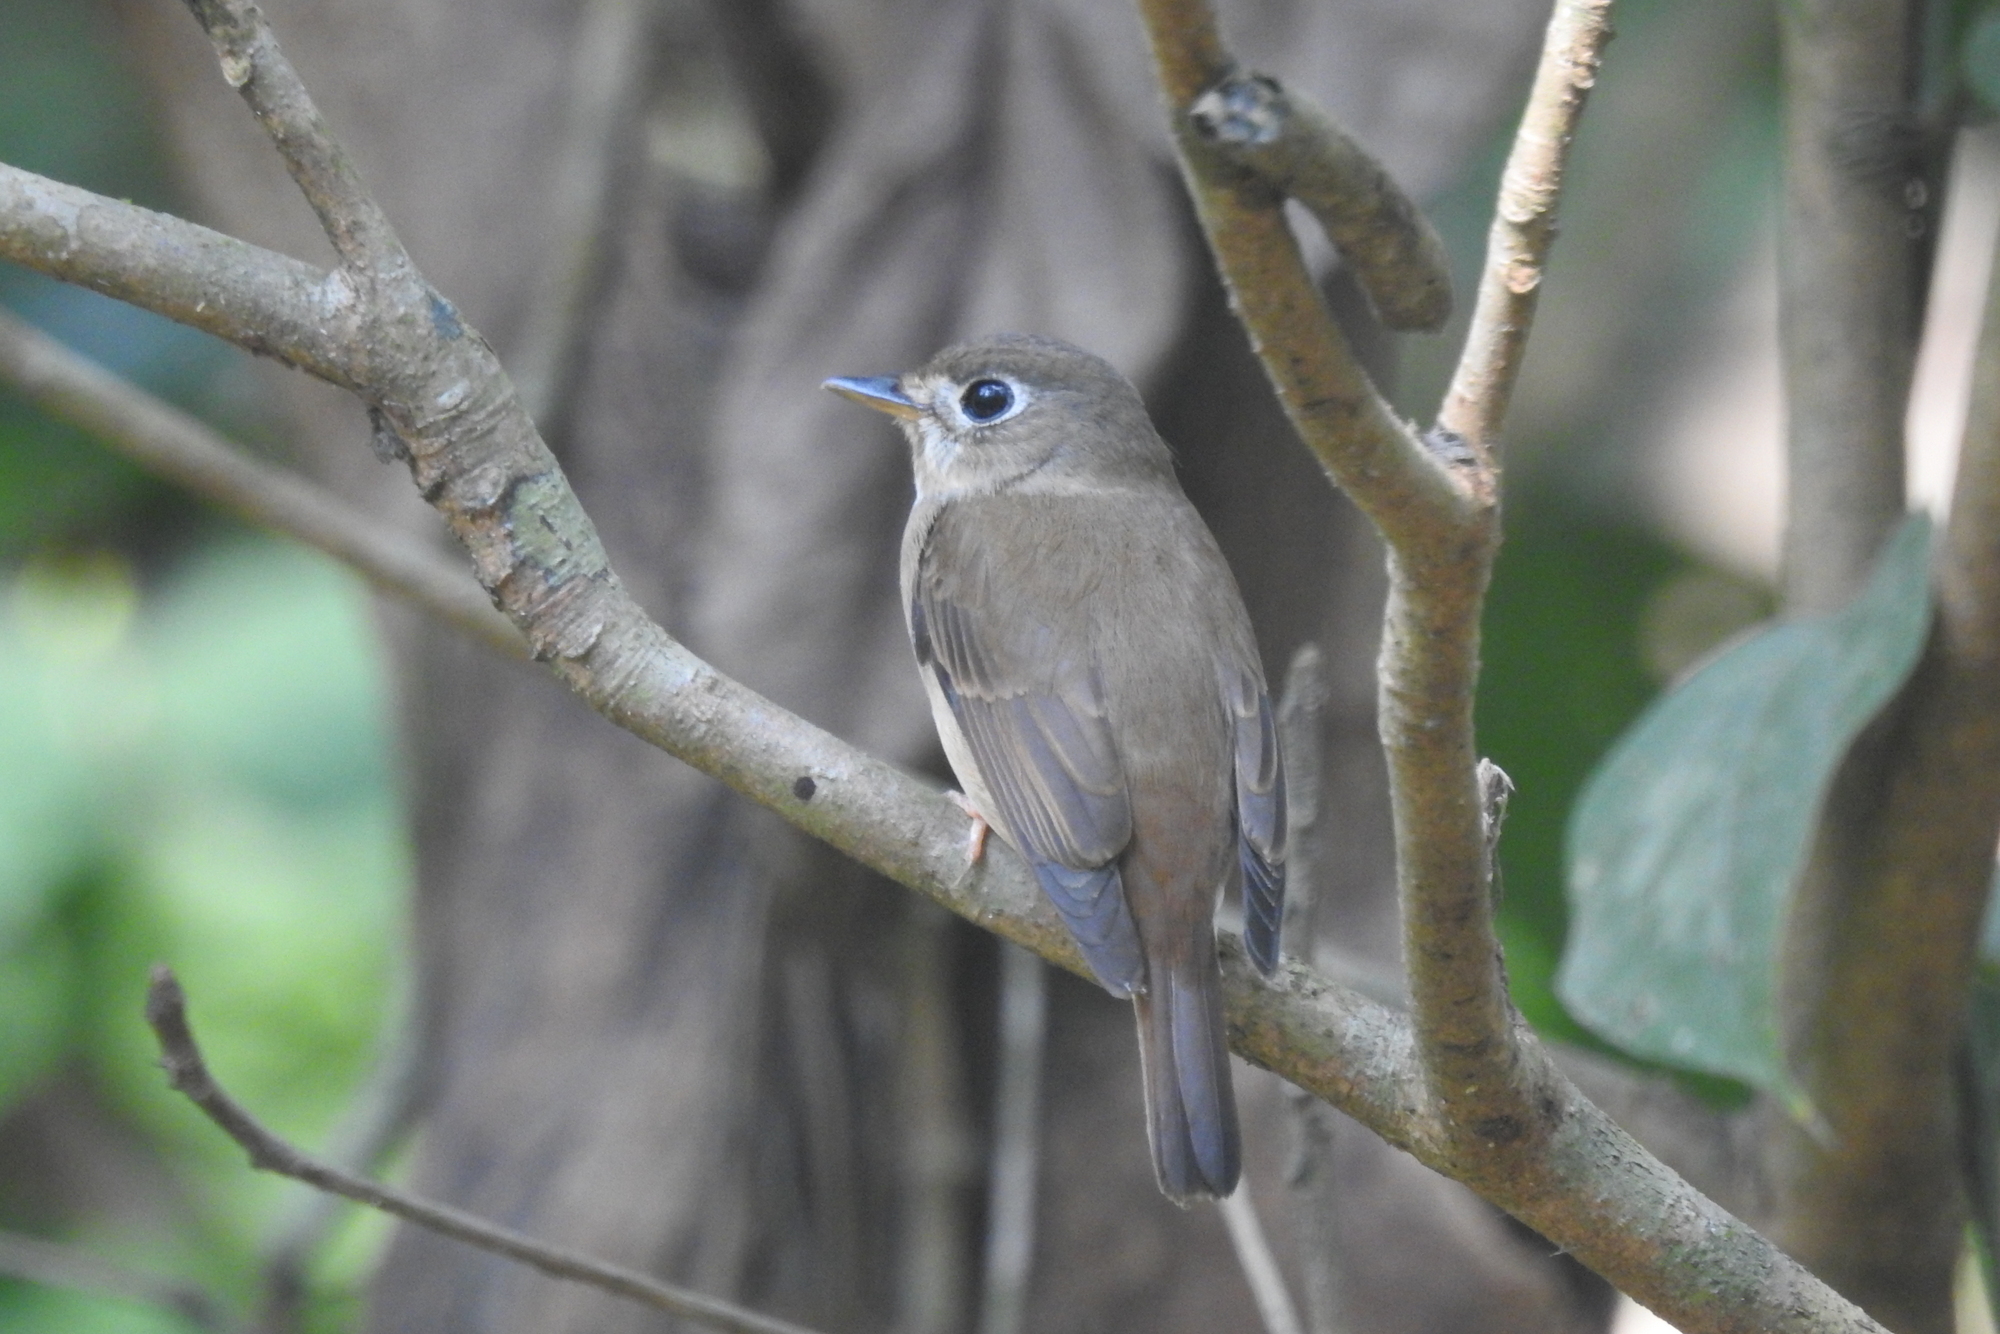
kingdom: Animalia
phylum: Chordata
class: Aves
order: Passeriformes
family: Muscicapidae
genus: Muscicapa
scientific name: Muscicapa muttui
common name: Brown-breasted flycatcher
